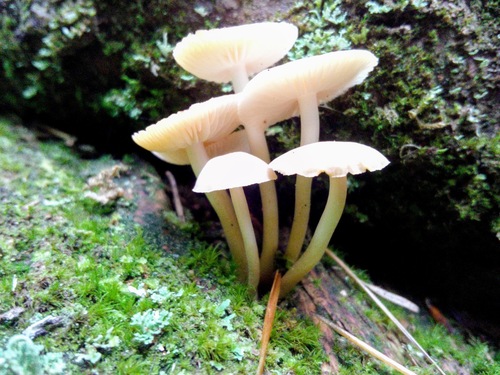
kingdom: Fungi
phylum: Basidiomycota
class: Agaricomycetes
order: Agaricales
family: Mycenaceae
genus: Mycena
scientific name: Mycena
